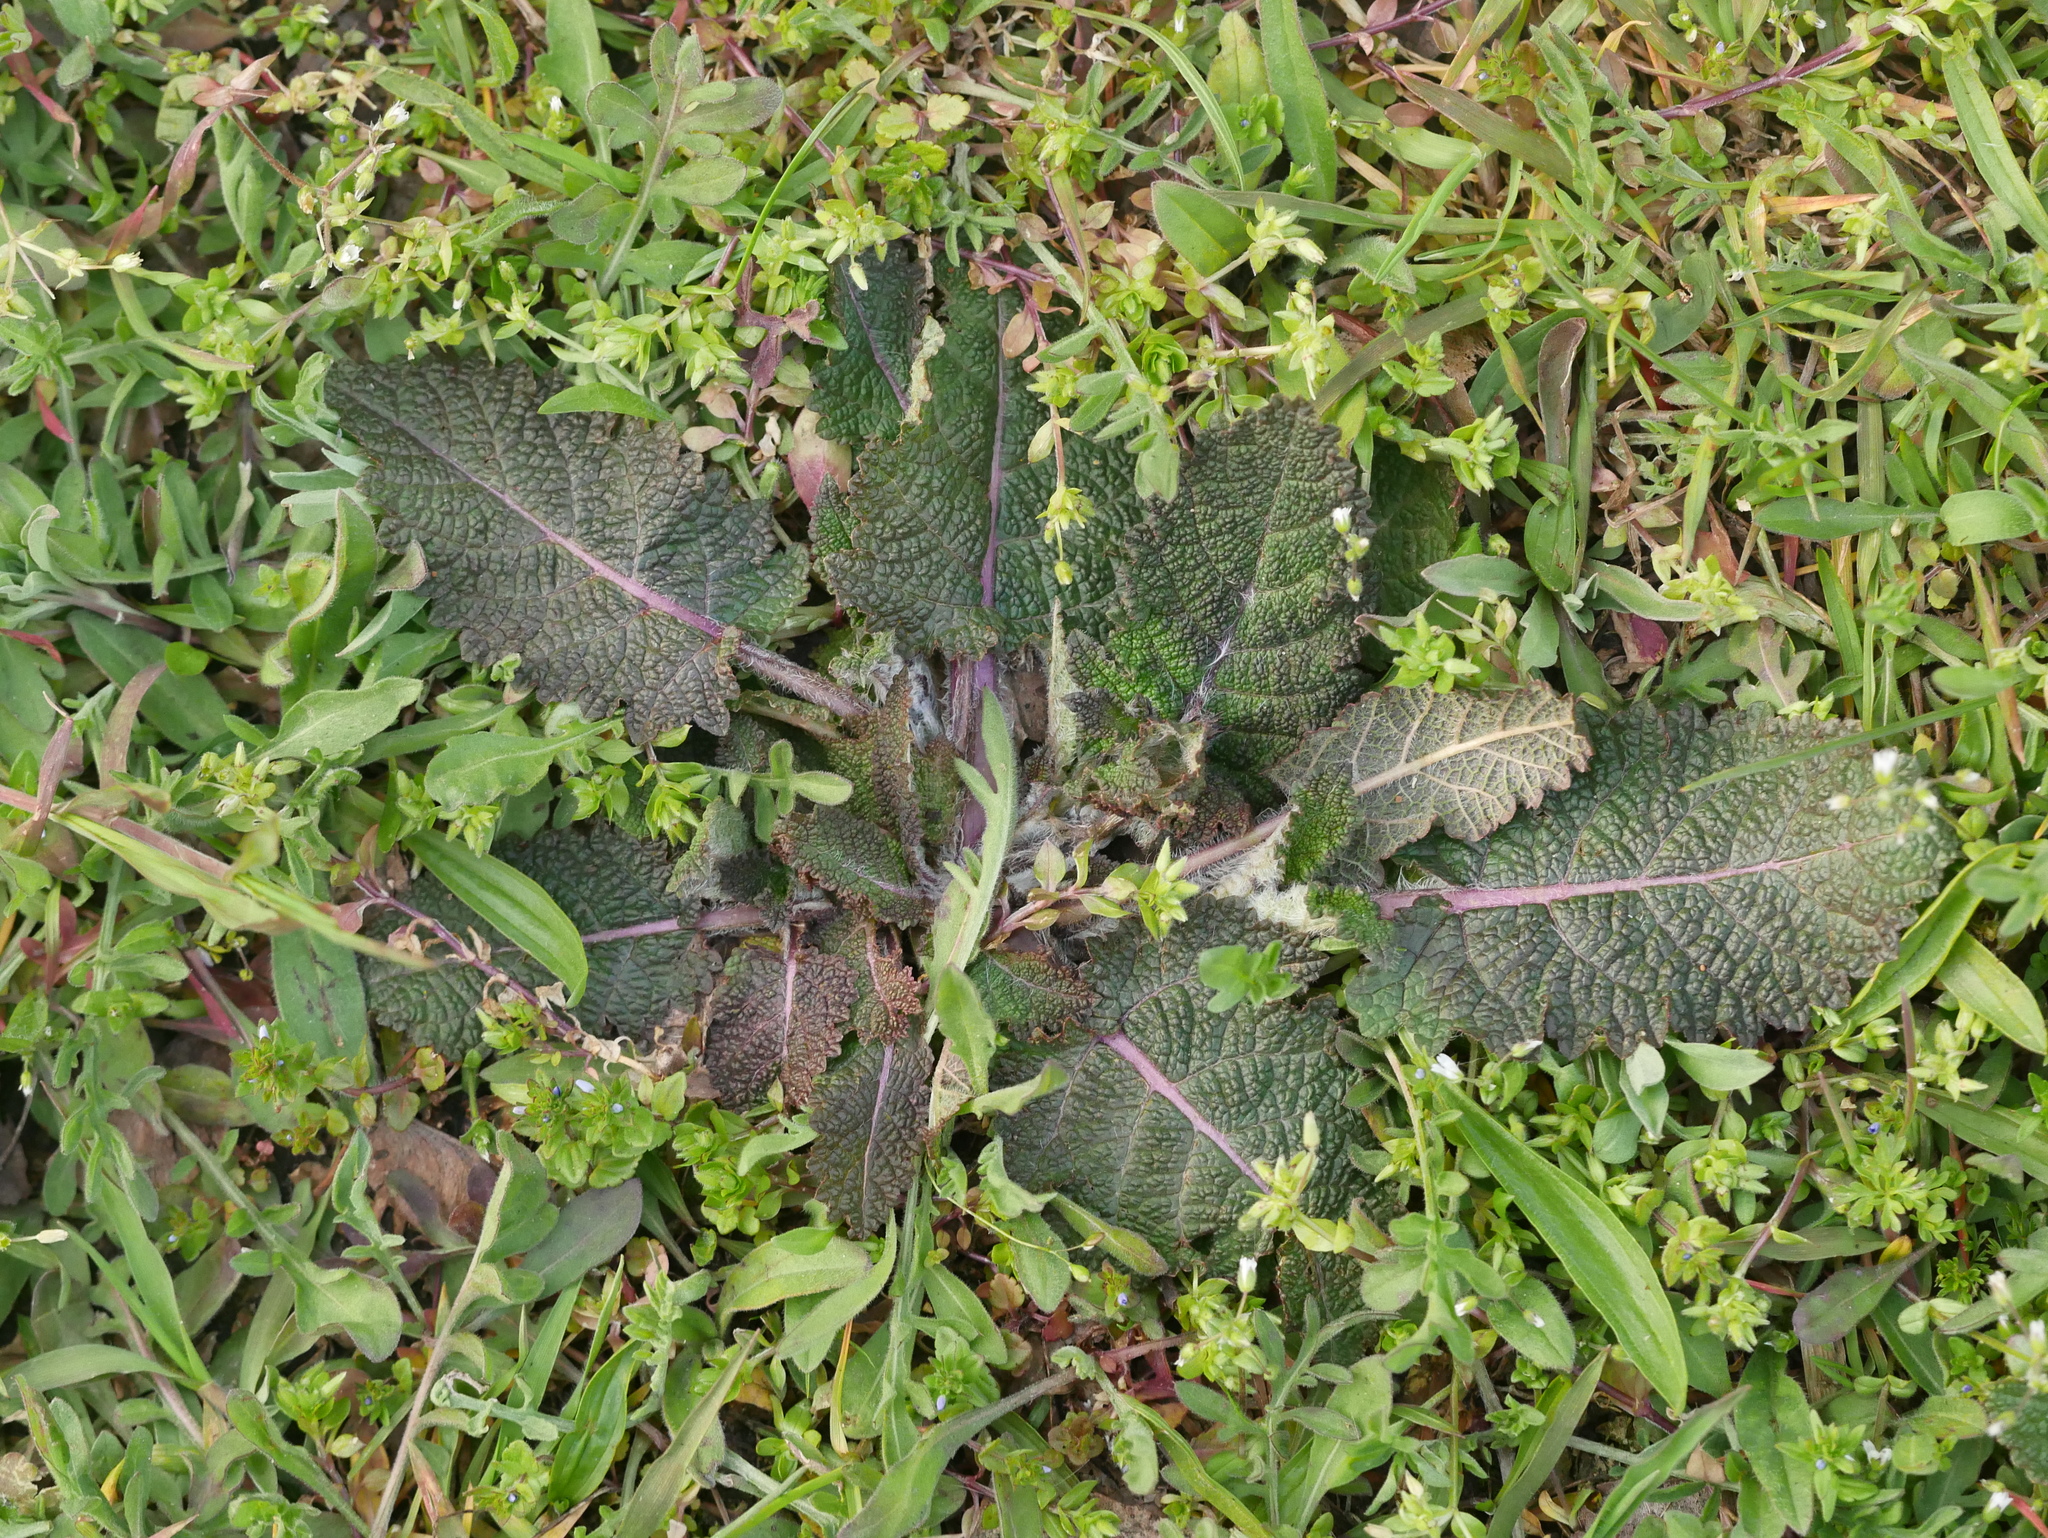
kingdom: Plantae
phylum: Tracheophyta
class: Magnoliopsida
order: Lamiales
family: Lamiaceae
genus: Salvia
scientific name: Salvia pratensis
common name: Meadow sage
